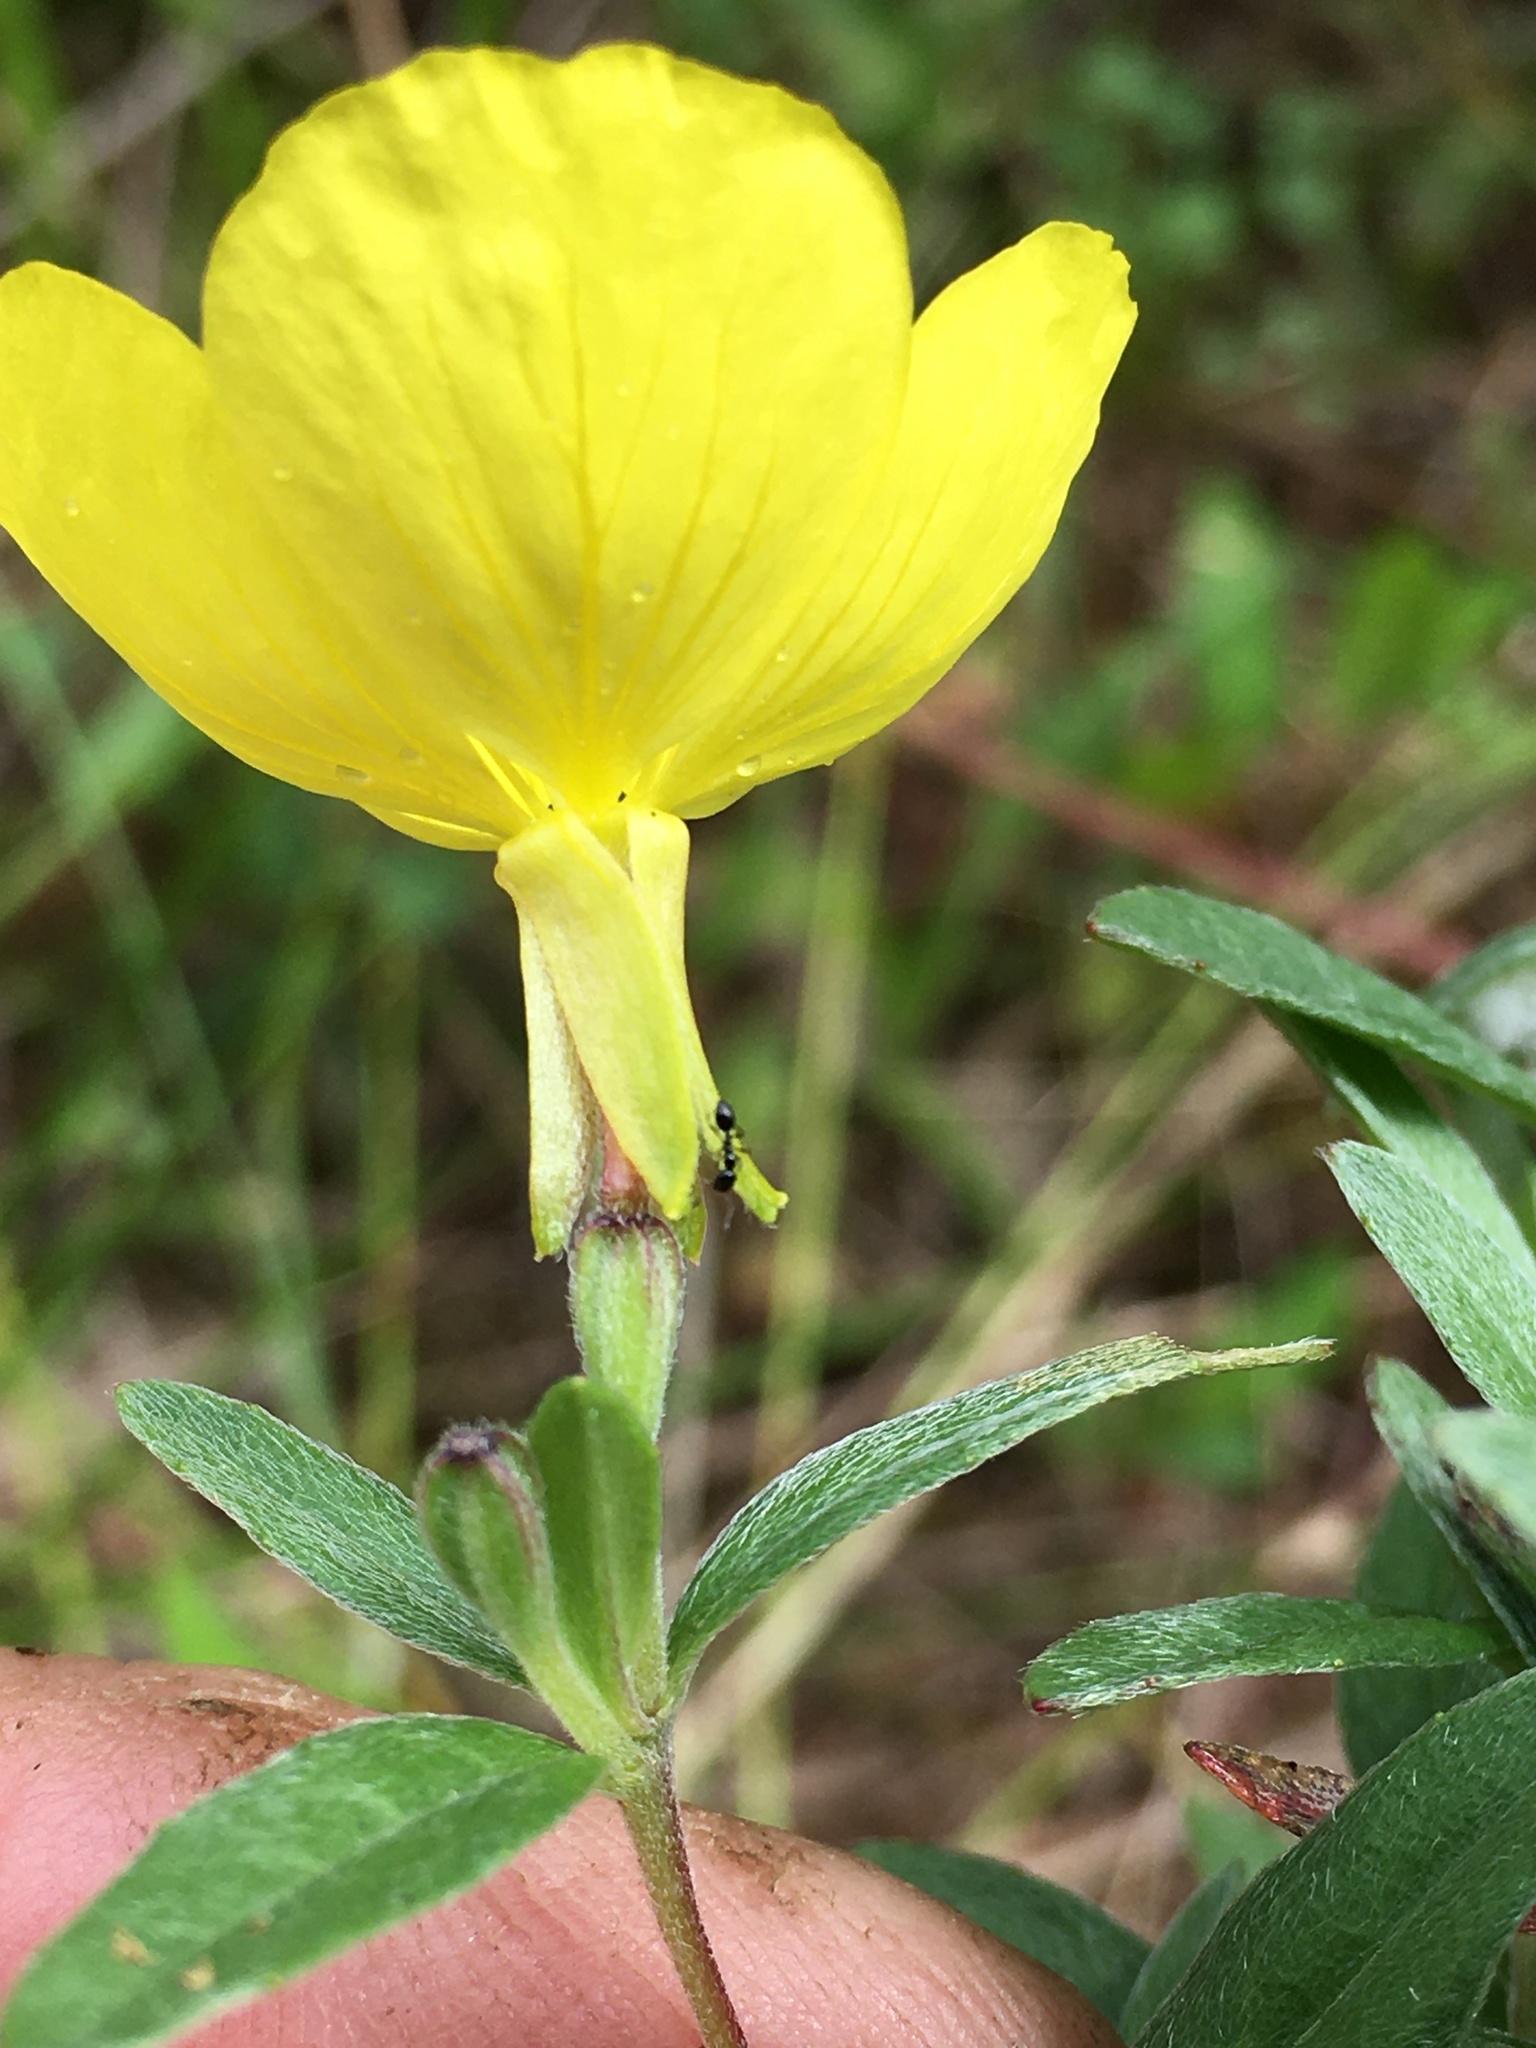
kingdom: Plantae
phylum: Tracheophyta
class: Magnoliopsida
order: Myrtales
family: Onagraceae
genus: Oenothera
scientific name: Oenothera fruticosa
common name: Southern sundrops
